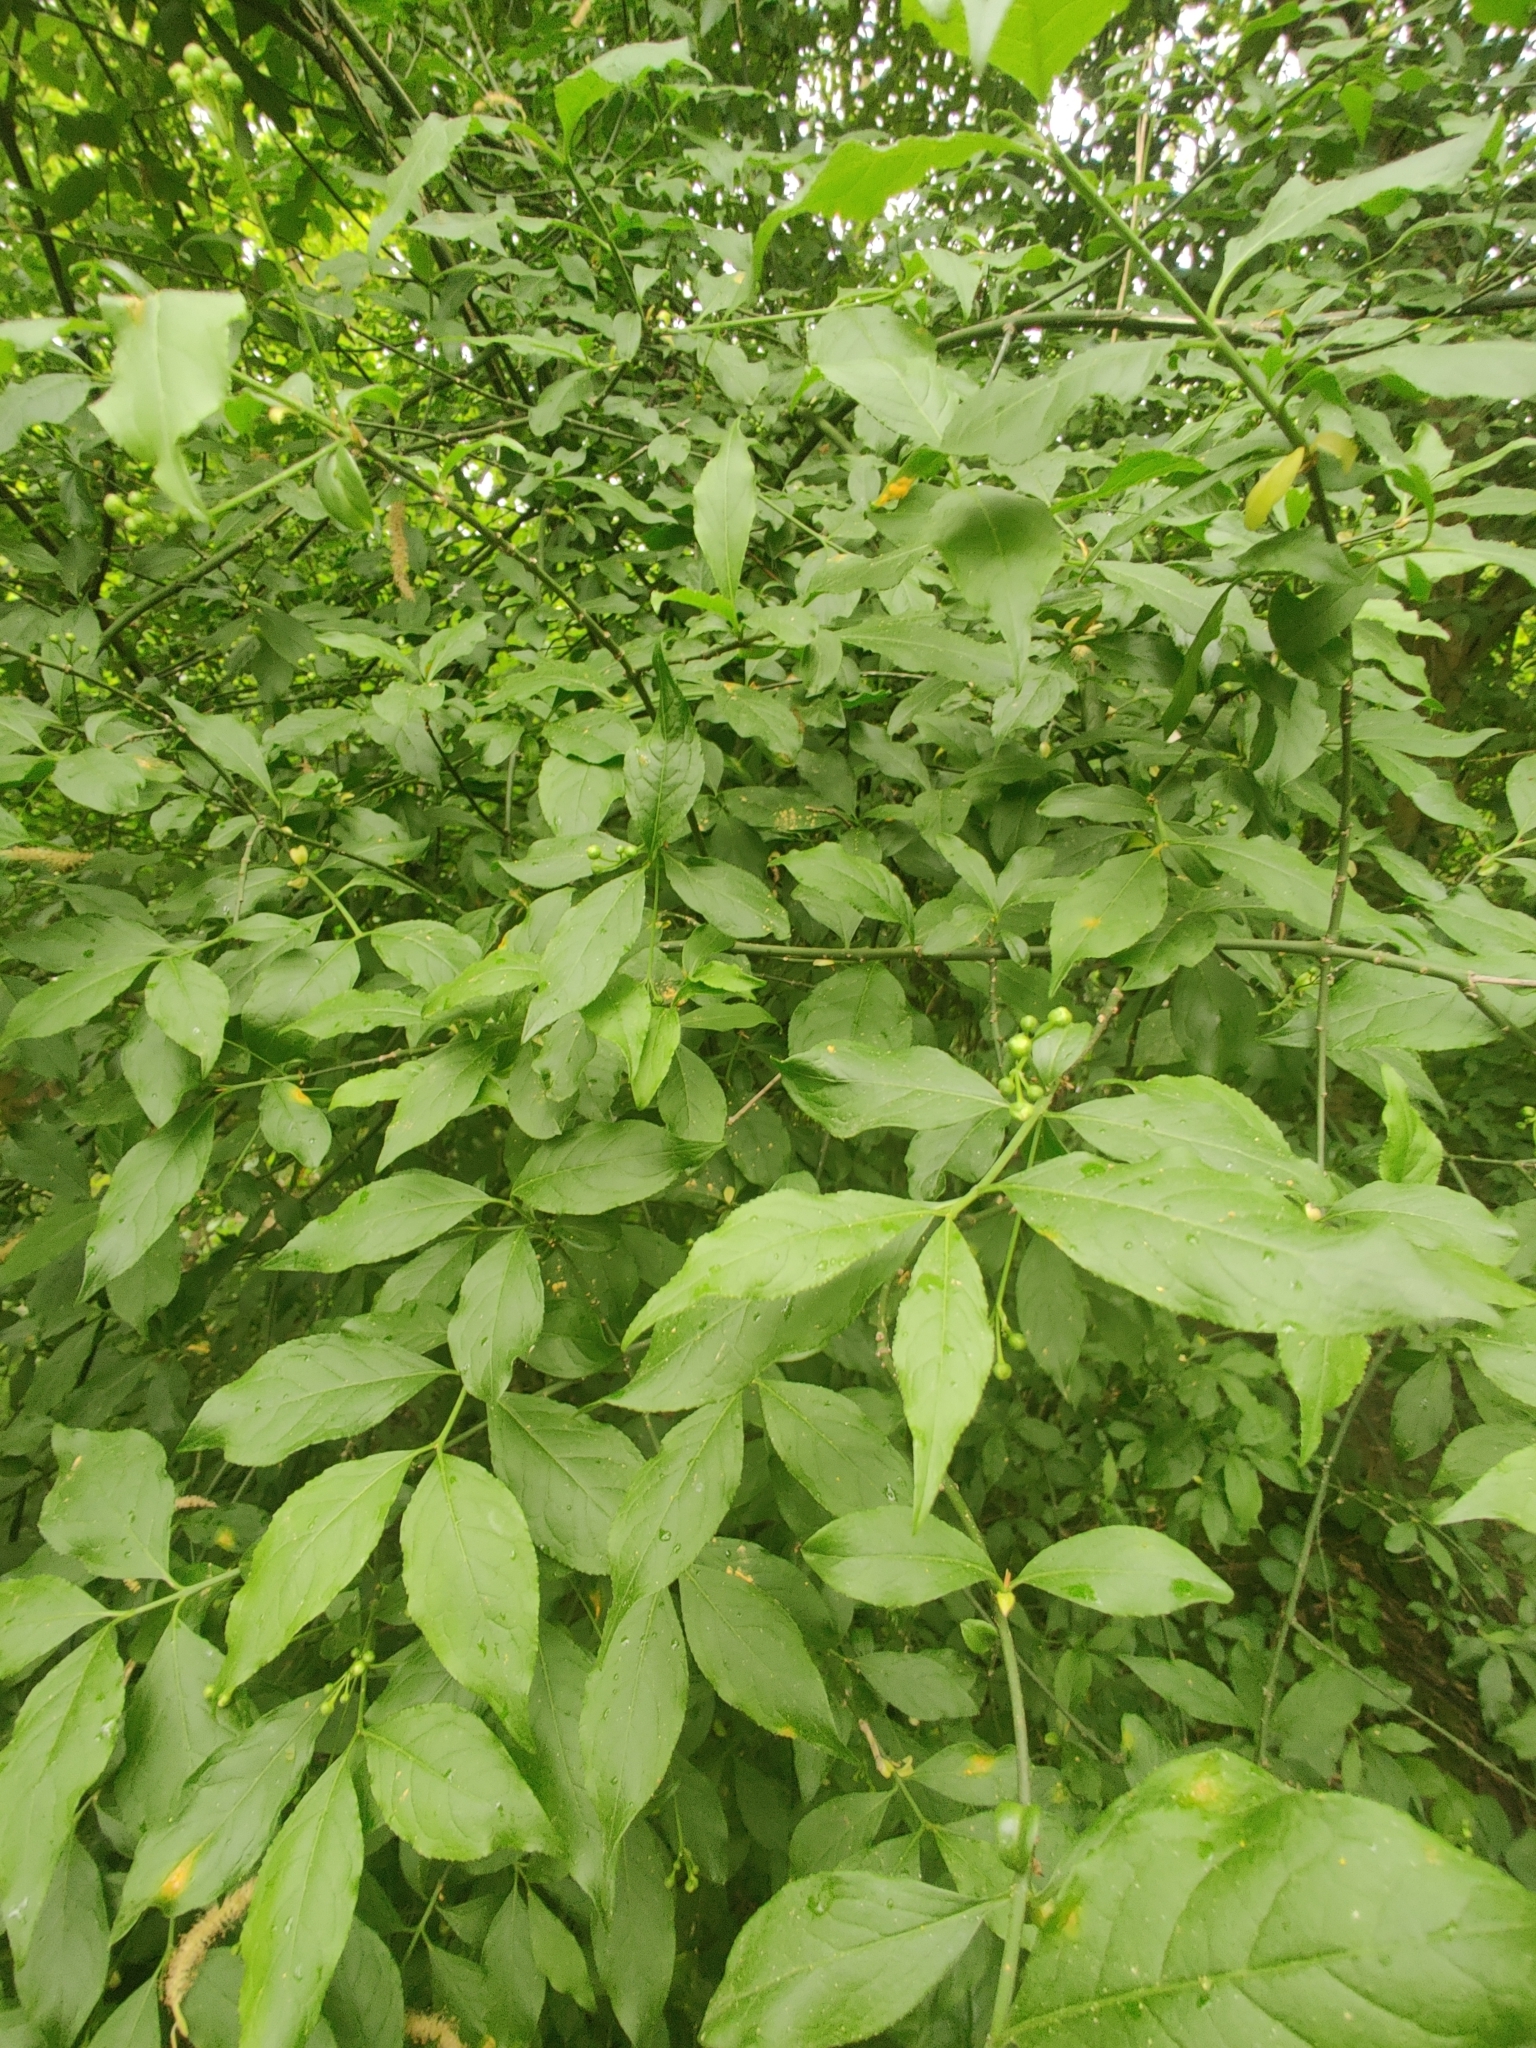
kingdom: Plantae
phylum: Tracheophyta
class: Magnoliopsida
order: Celastrales
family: Celastraceae
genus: Euonymus
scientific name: Euonymus europaeus
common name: Spindle
